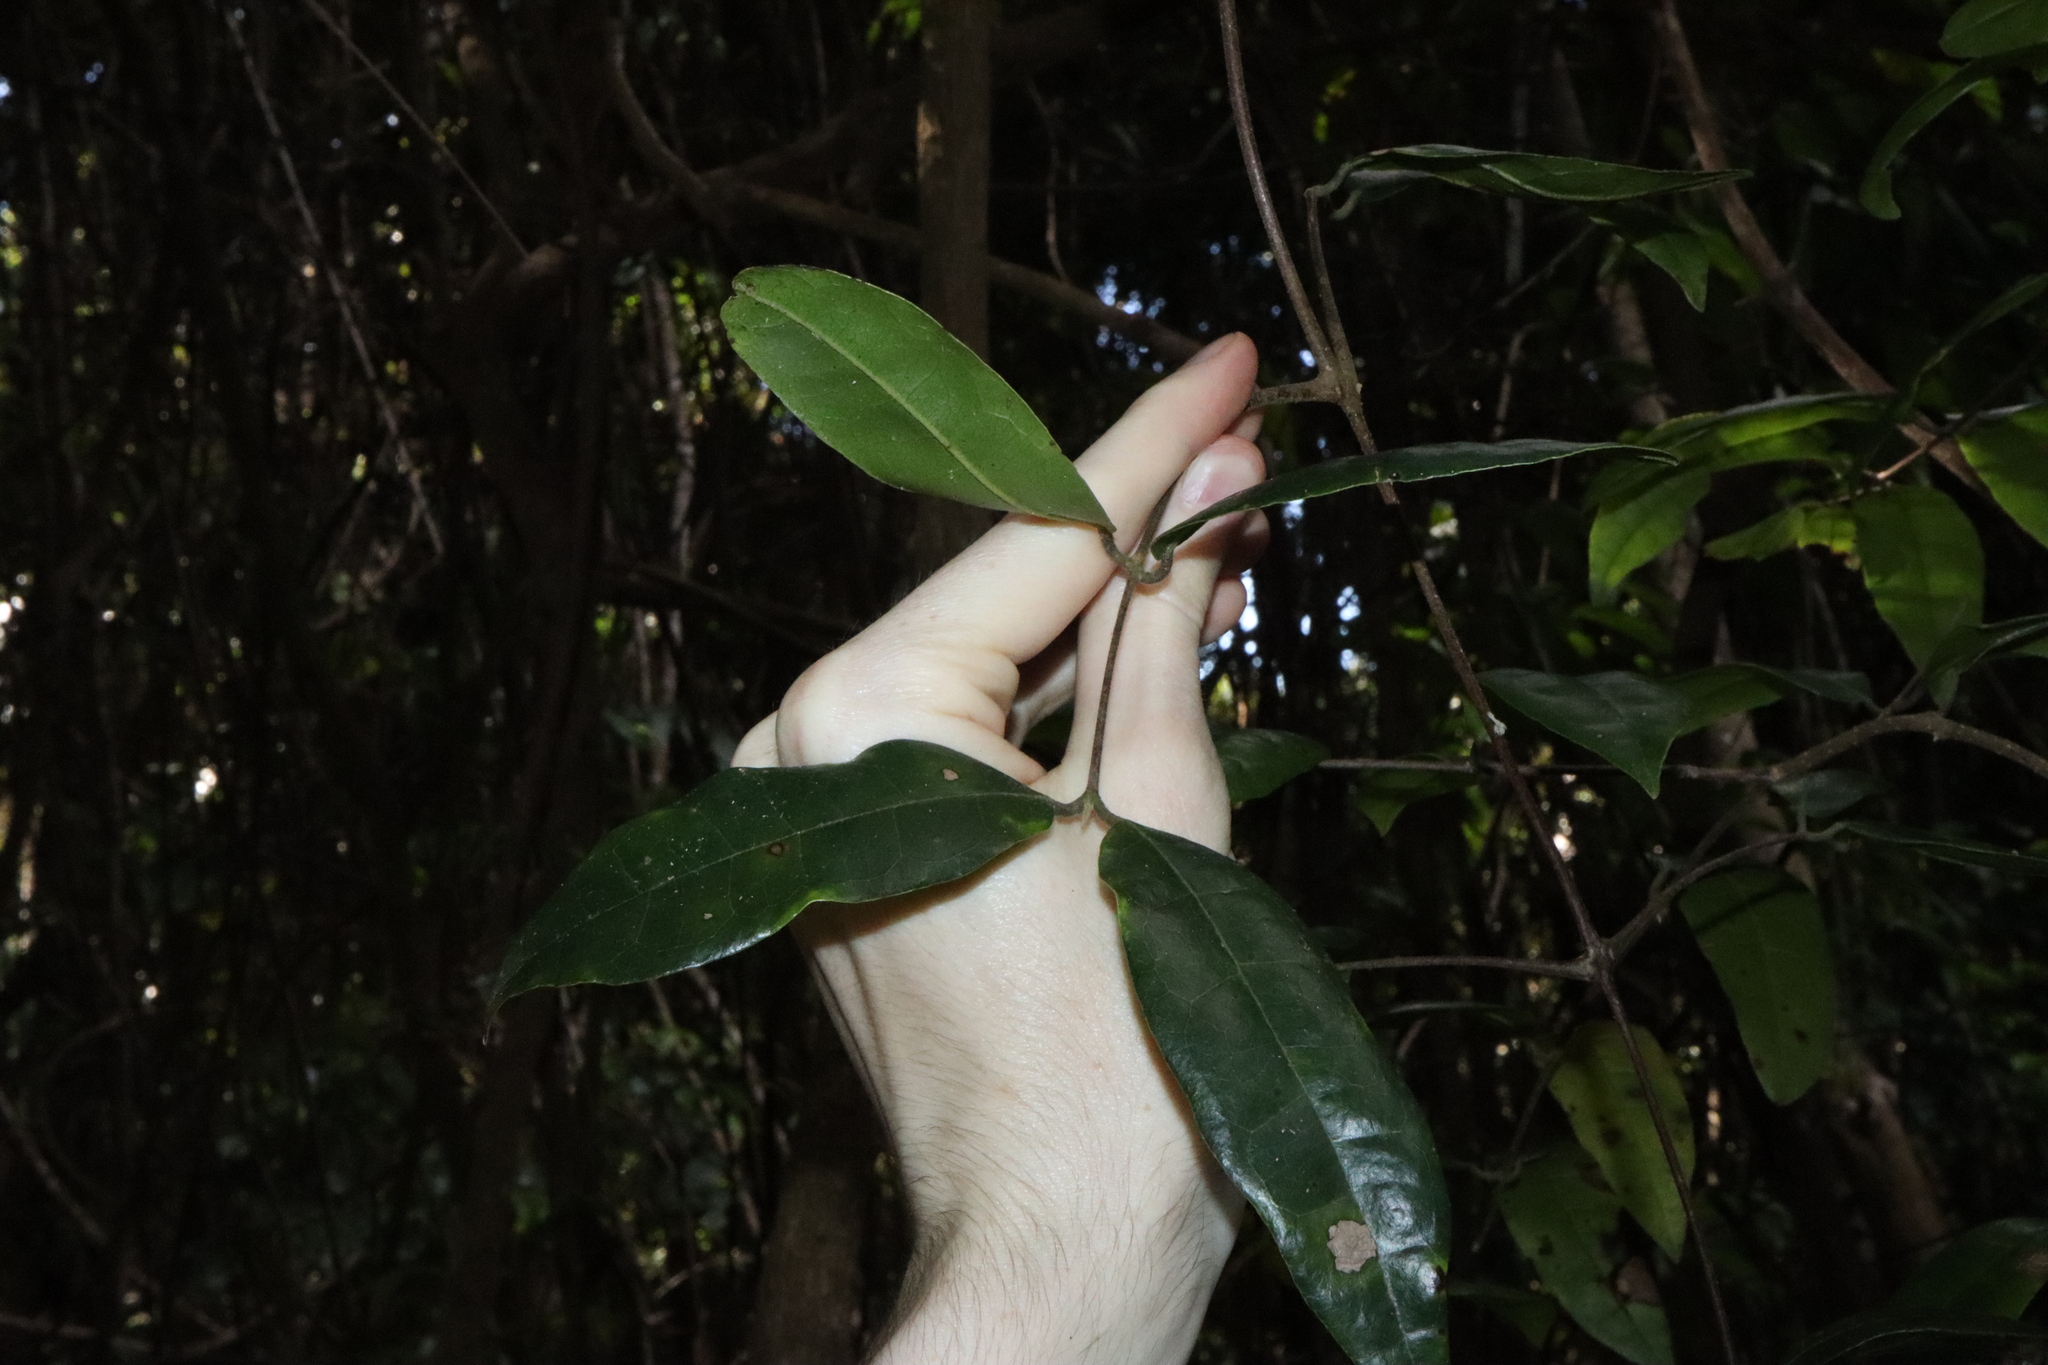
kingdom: Plantae
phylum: Tracheophyta
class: Magnoliopsida
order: Laurales
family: Monimiaceae
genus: Palmeria
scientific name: Palmeria scandens
